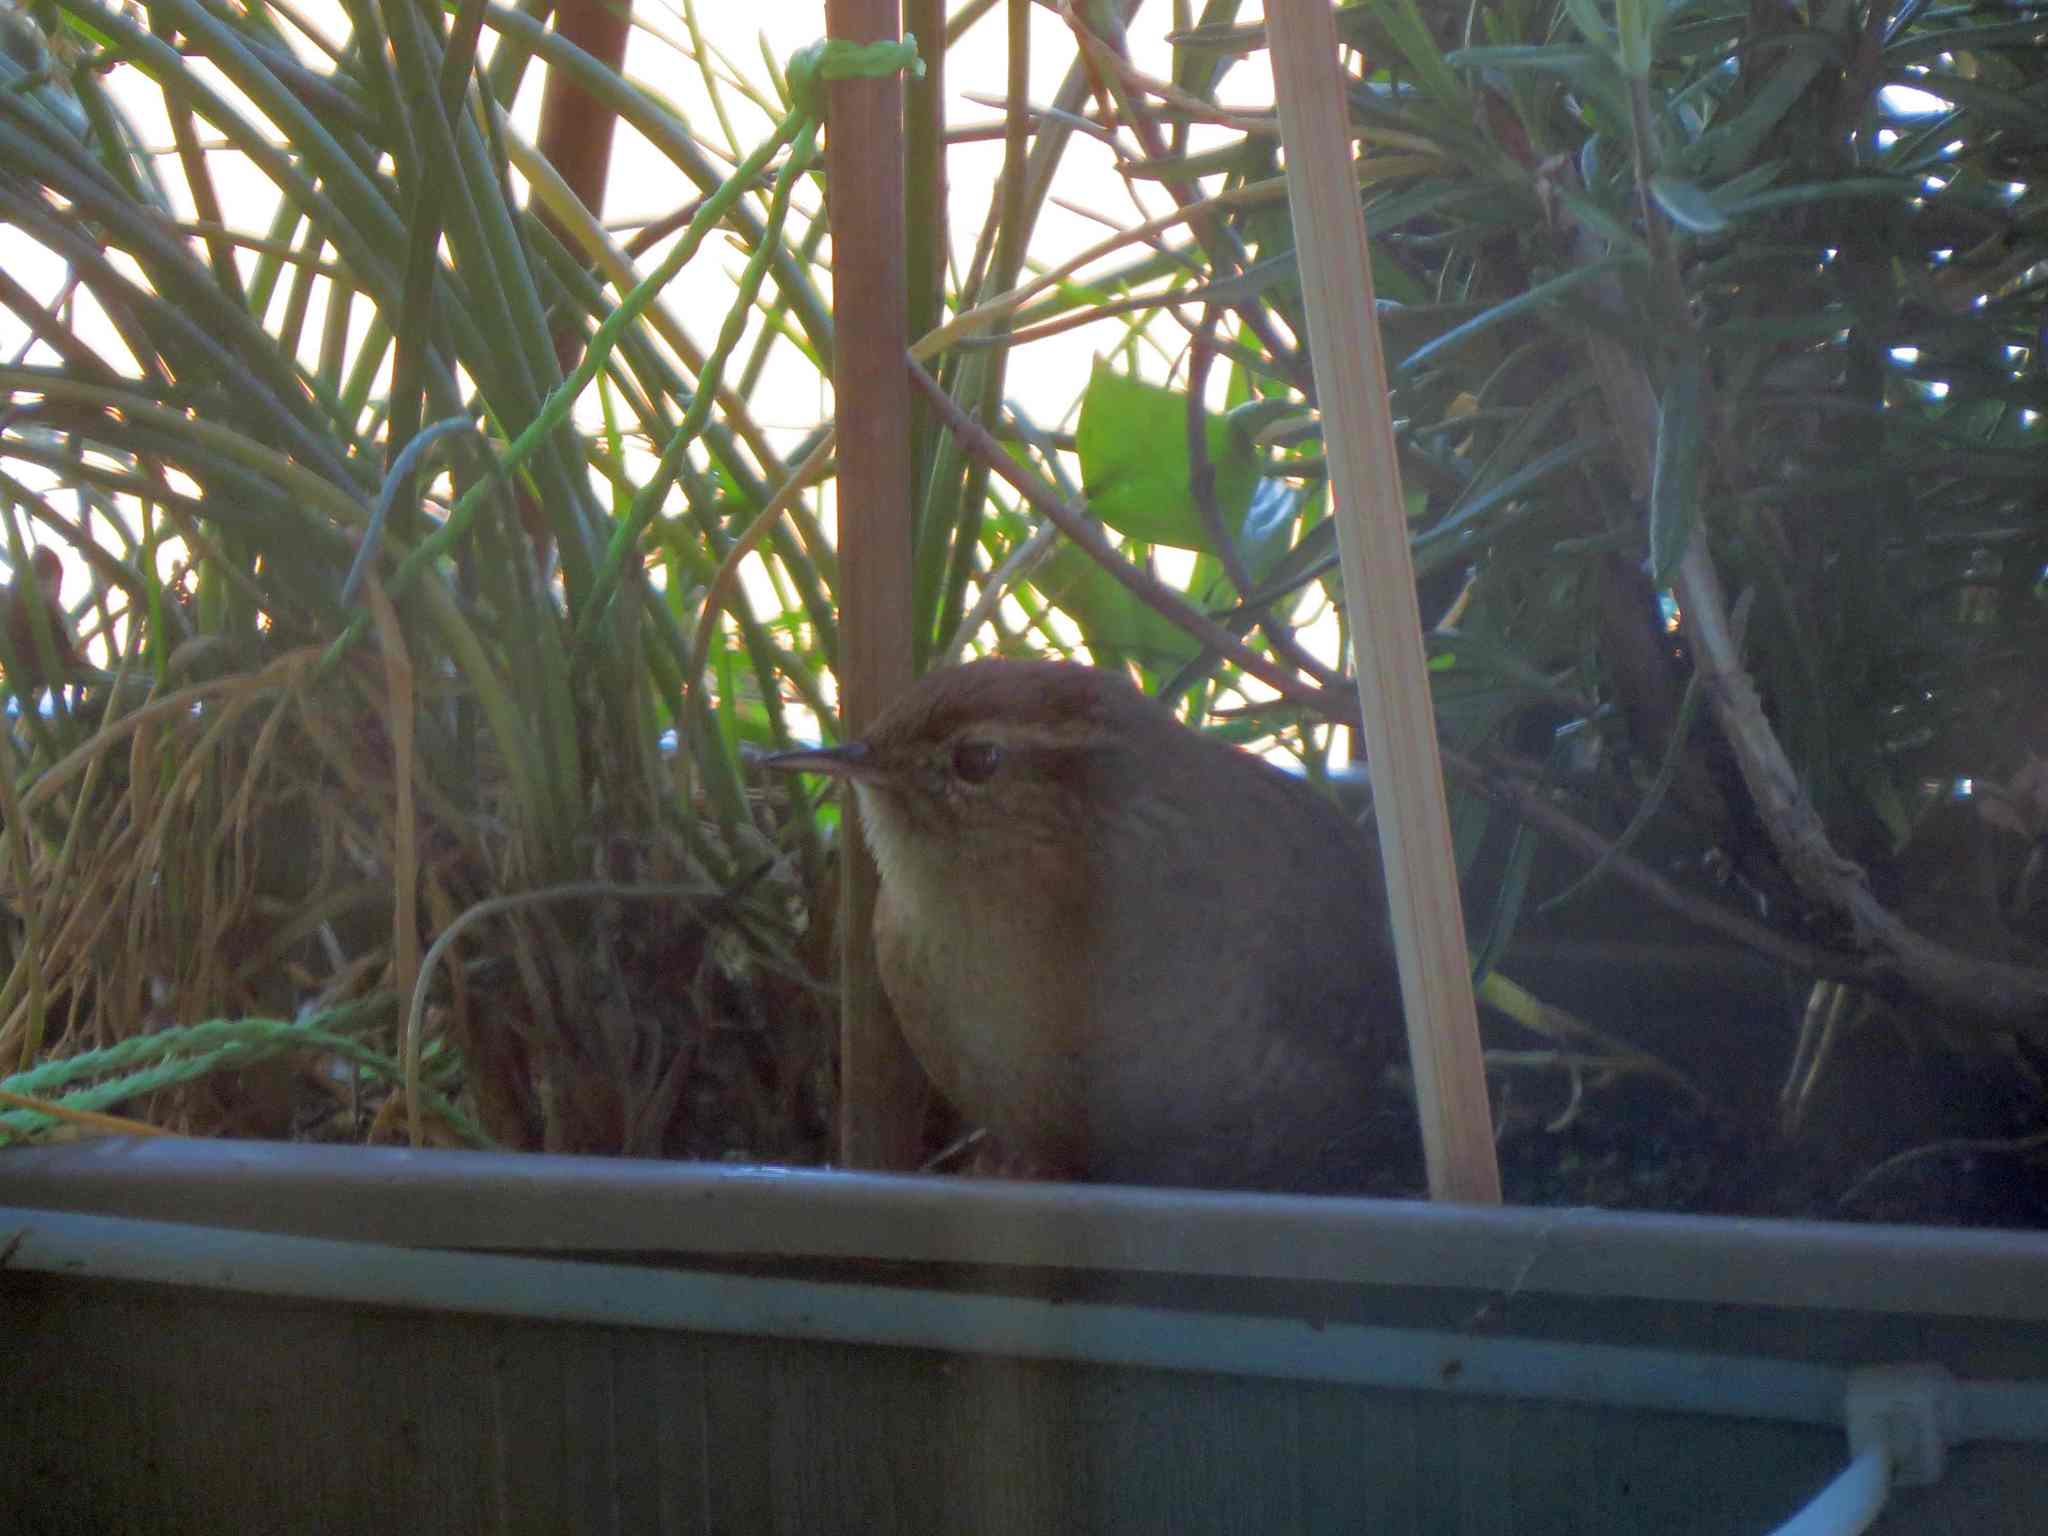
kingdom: Animalia
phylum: Chordata
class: Aves
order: Passeriformes
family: Troglodytidae
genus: Troglodytes
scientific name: Troglodytes troglodytes
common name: Eurasian wren
